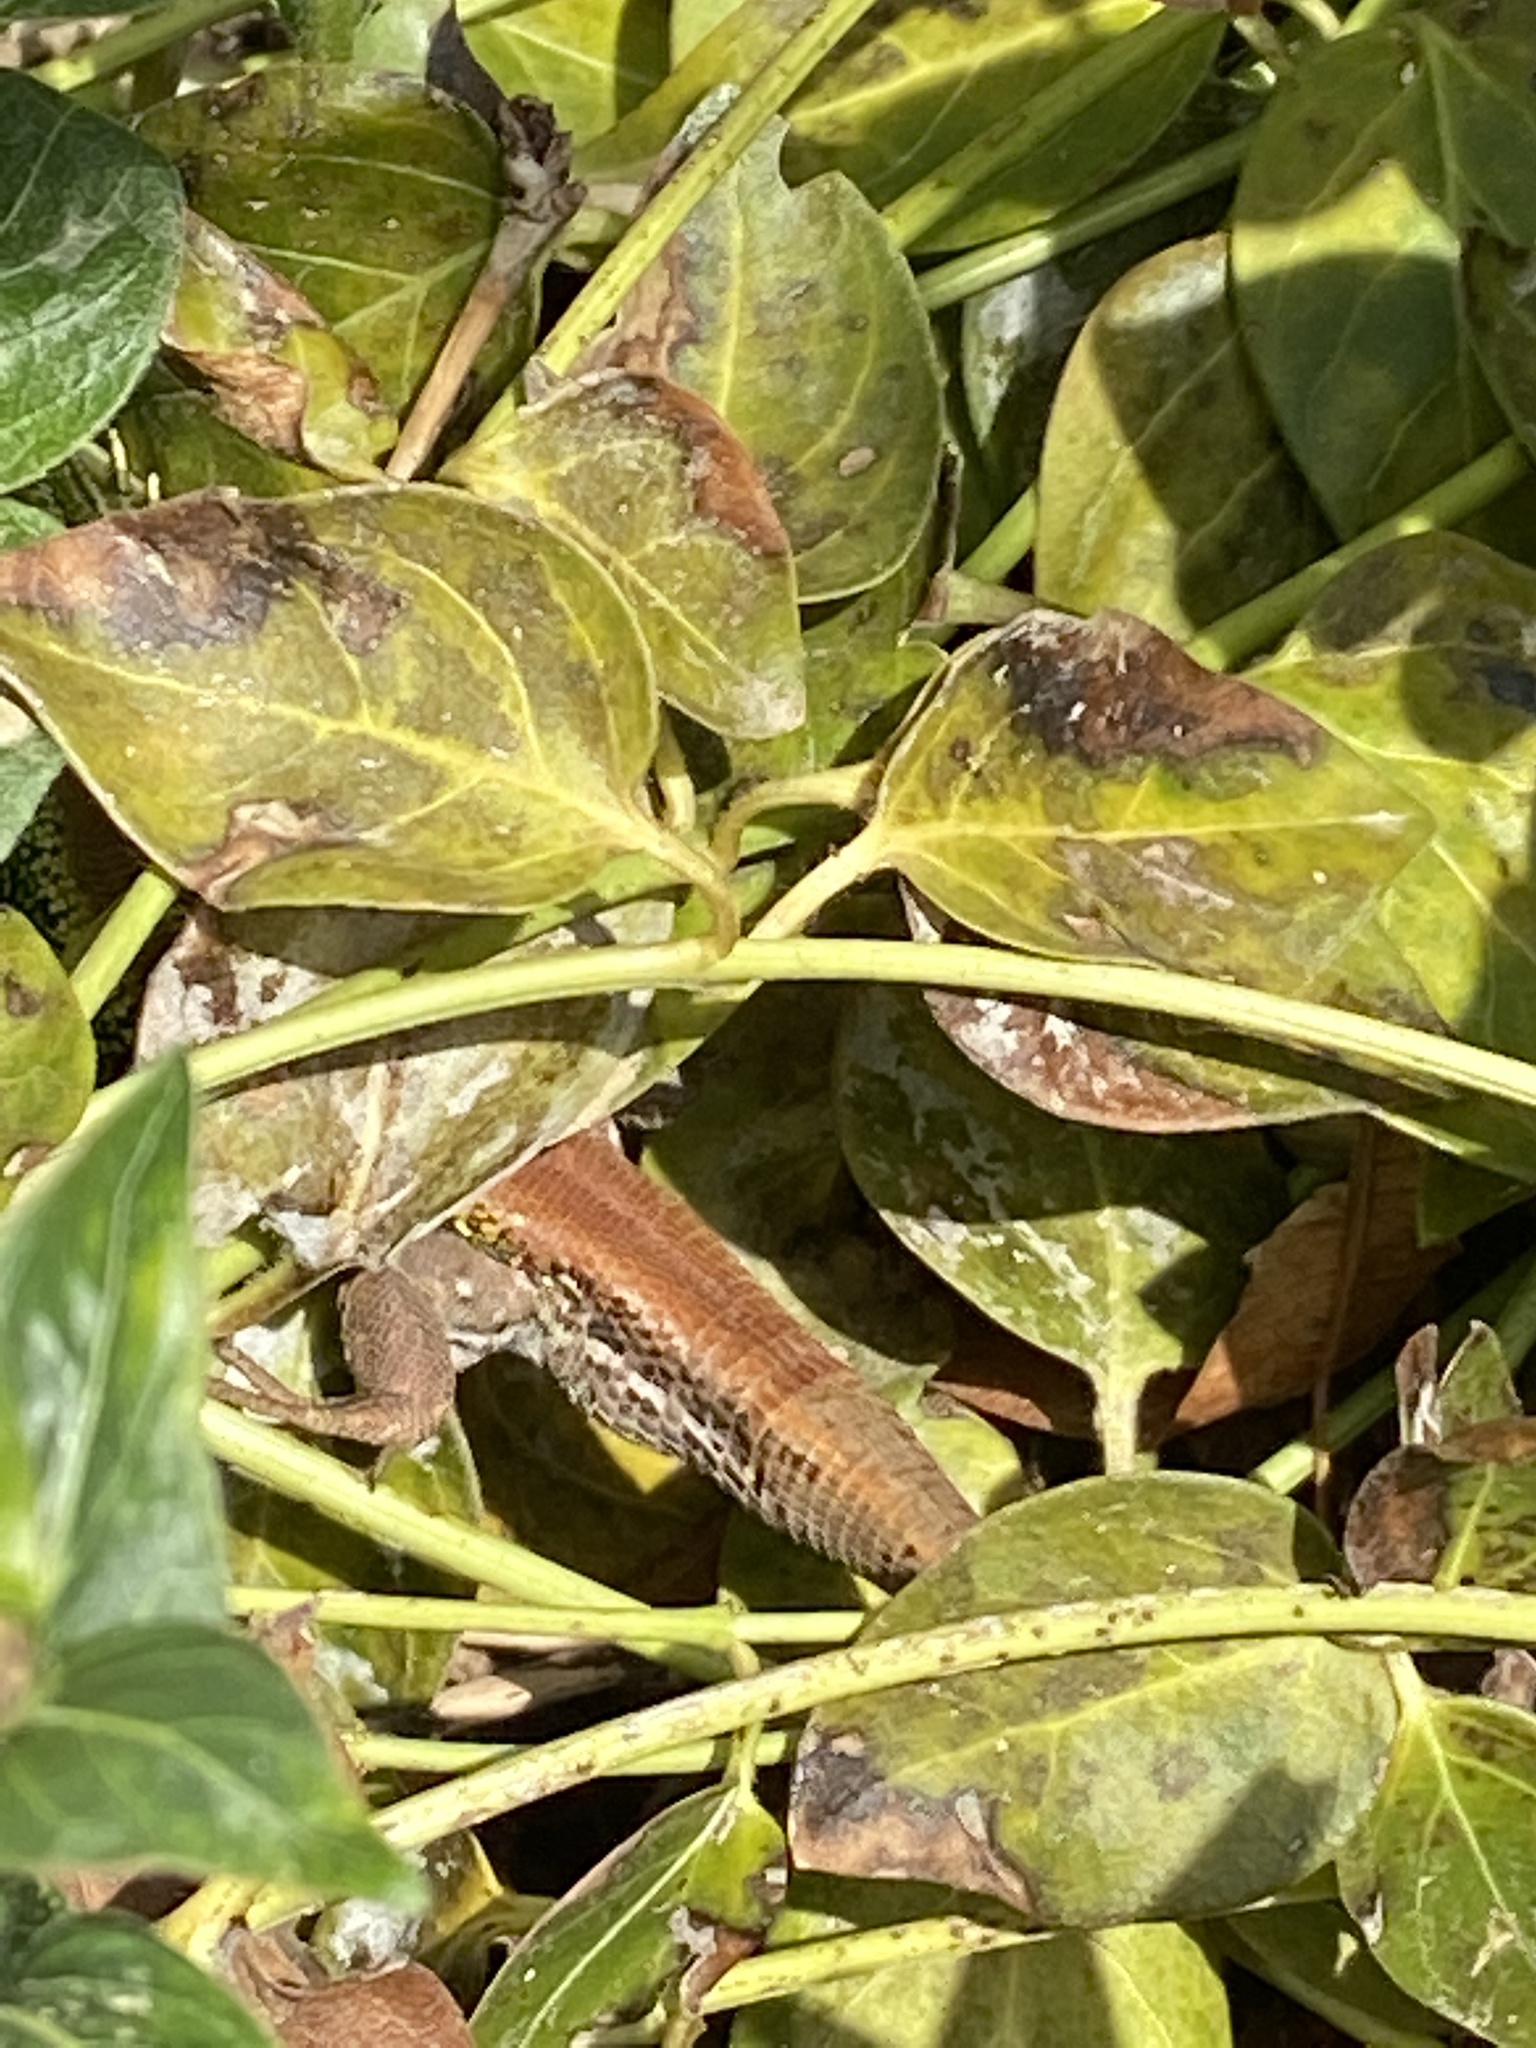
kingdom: Animalia
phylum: Chordata
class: Squamata
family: Lacertidae
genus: Lacerta
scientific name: Lacerta agilis
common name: Sand lizard
